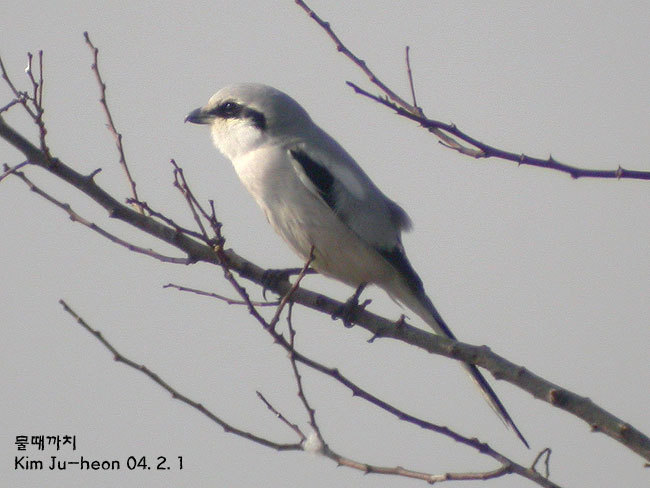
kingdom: Animalia
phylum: Chordata
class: Aves
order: Passeriformes
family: Laniidae
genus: Lanius
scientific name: Lanius sphenocercus
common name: Chinese grey shrike
